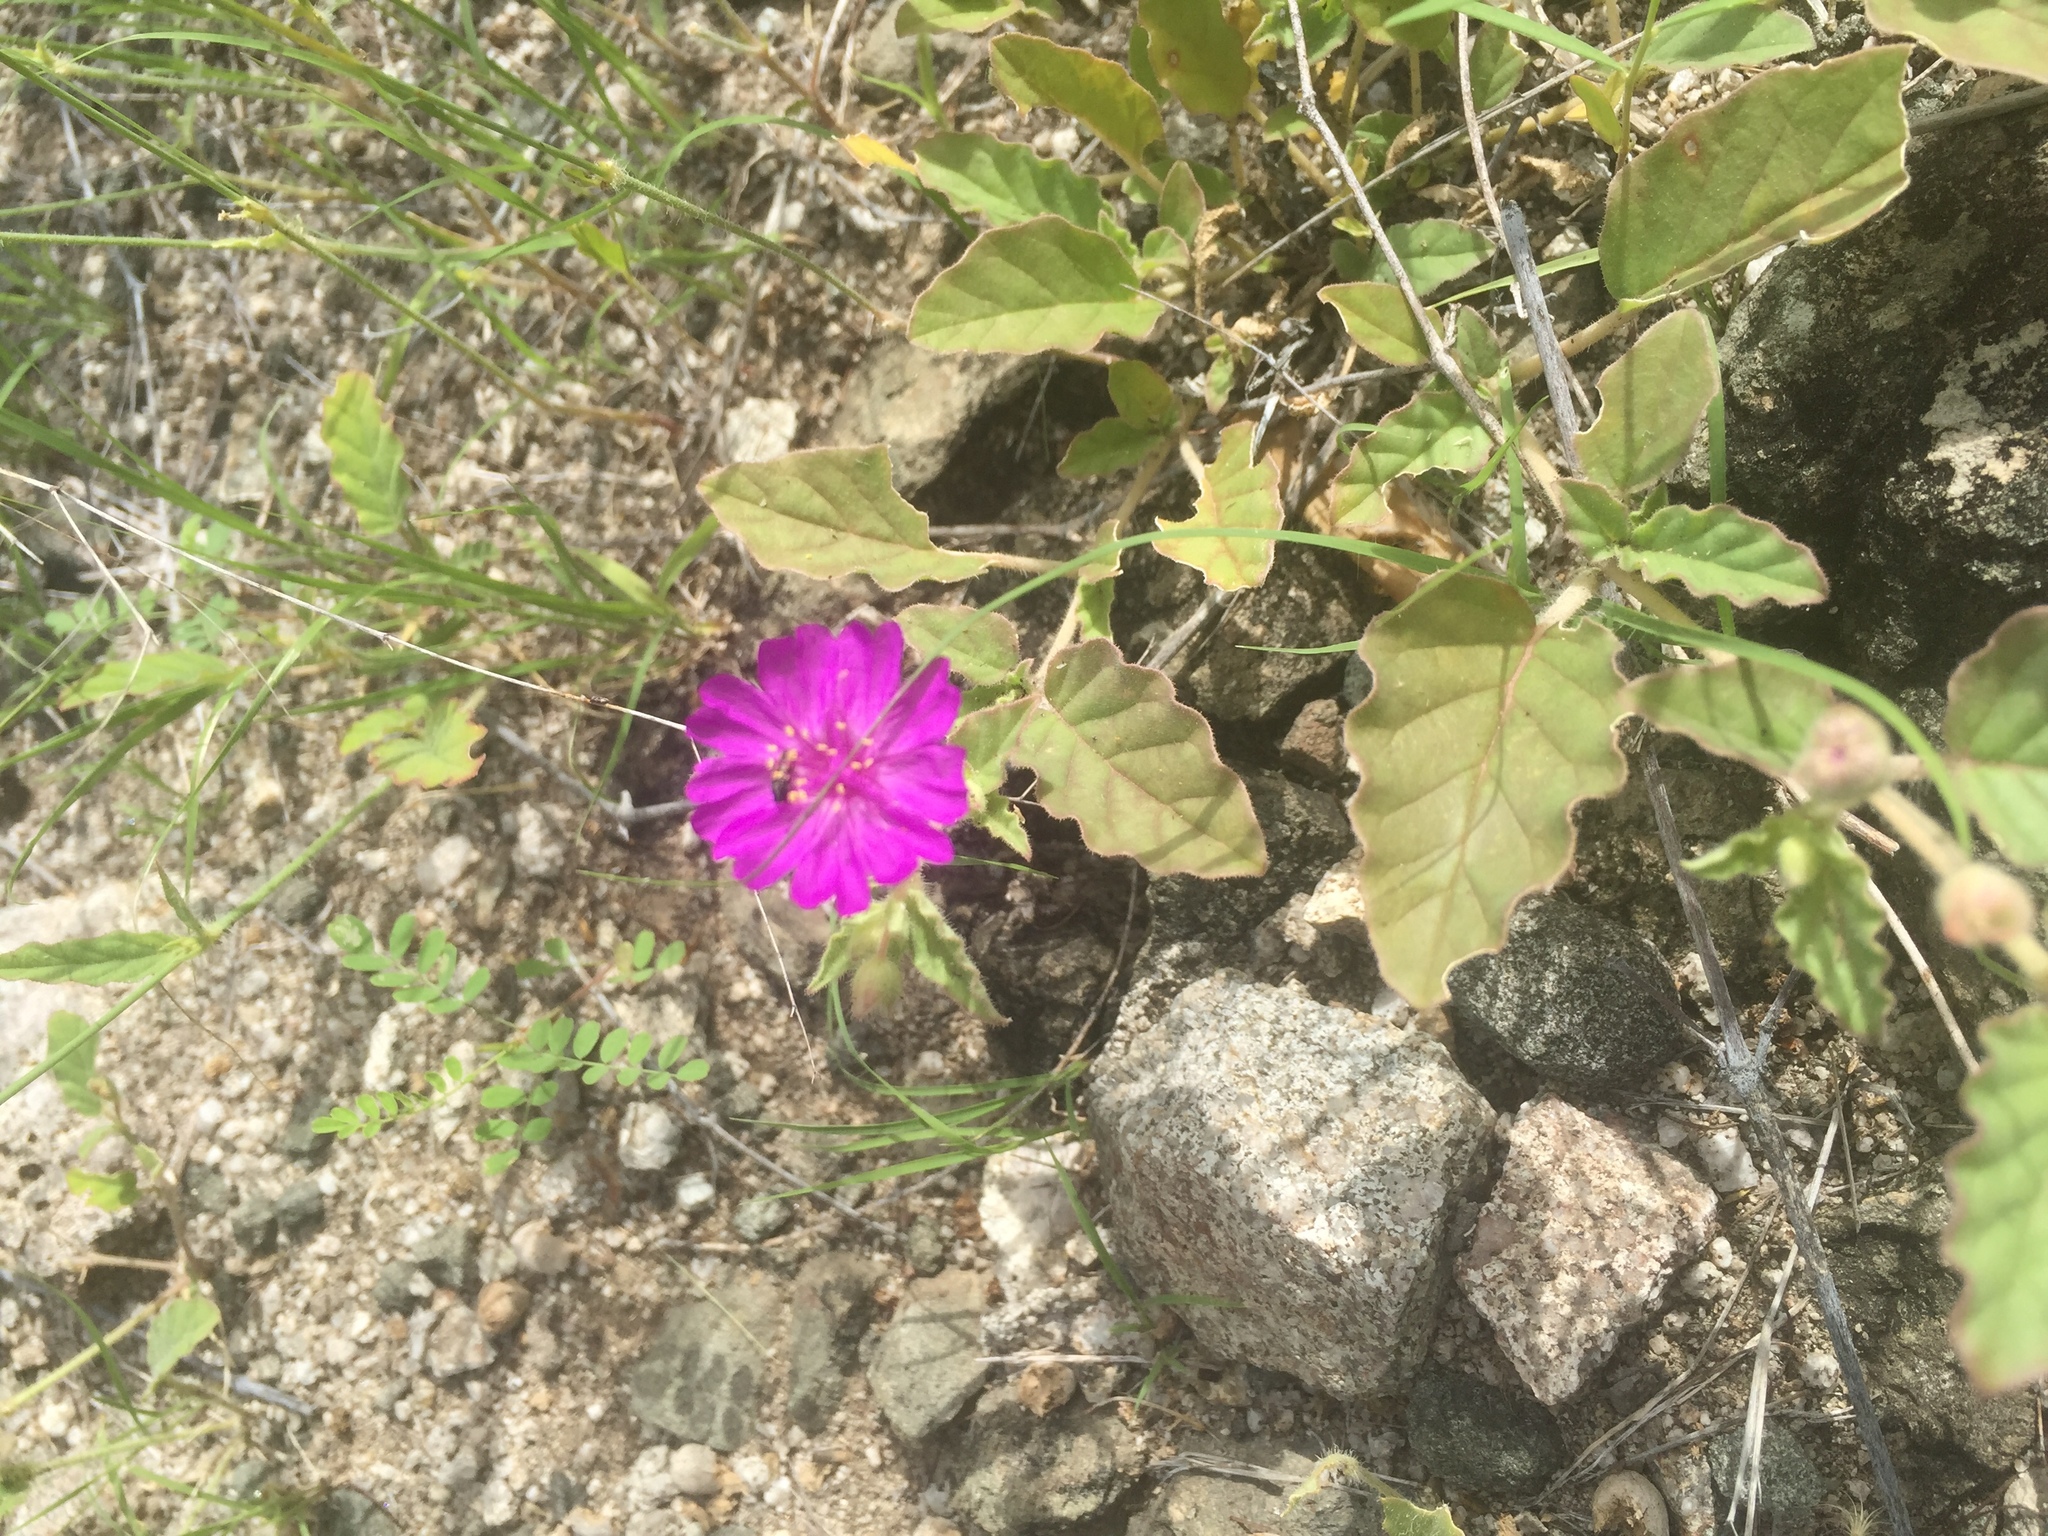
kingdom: Plantae
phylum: Tracheophyta
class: Magnoliopsida
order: Caryophyllales
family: Nyctaginaceae
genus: Allionia
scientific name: Allionia incarnata
